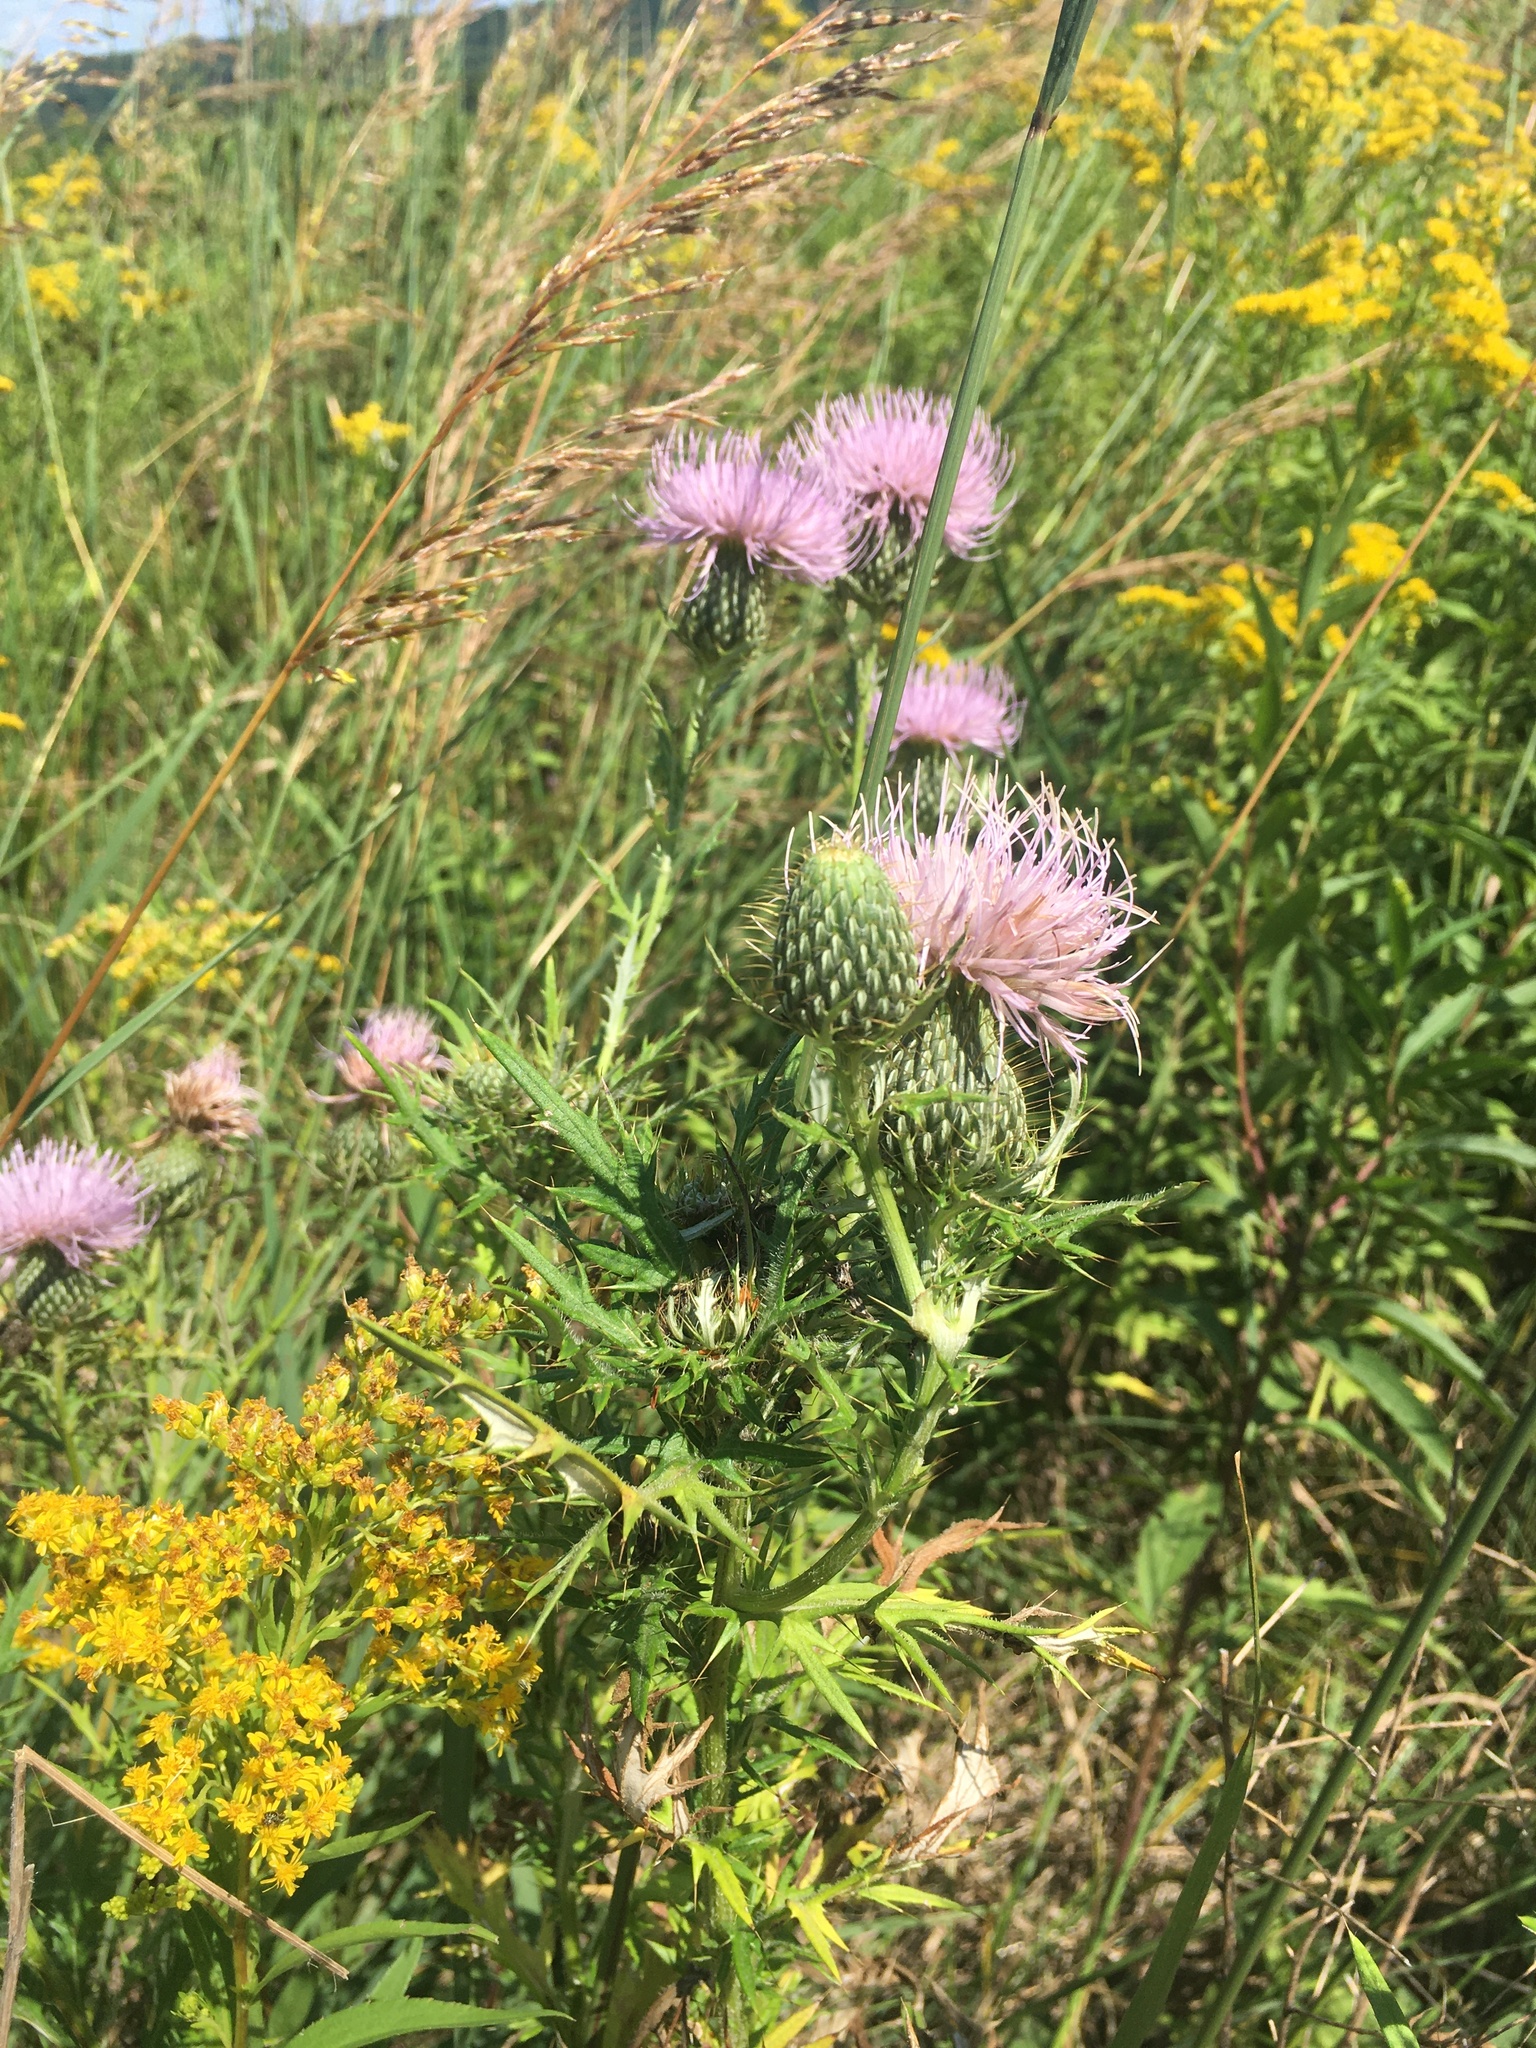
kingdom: Plantae
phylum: Tracheophyta
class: Magnoliopsida
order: Asterales
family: Asteraceae
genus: Cirsium
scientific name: Cirsium discolor
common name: Field thistle
